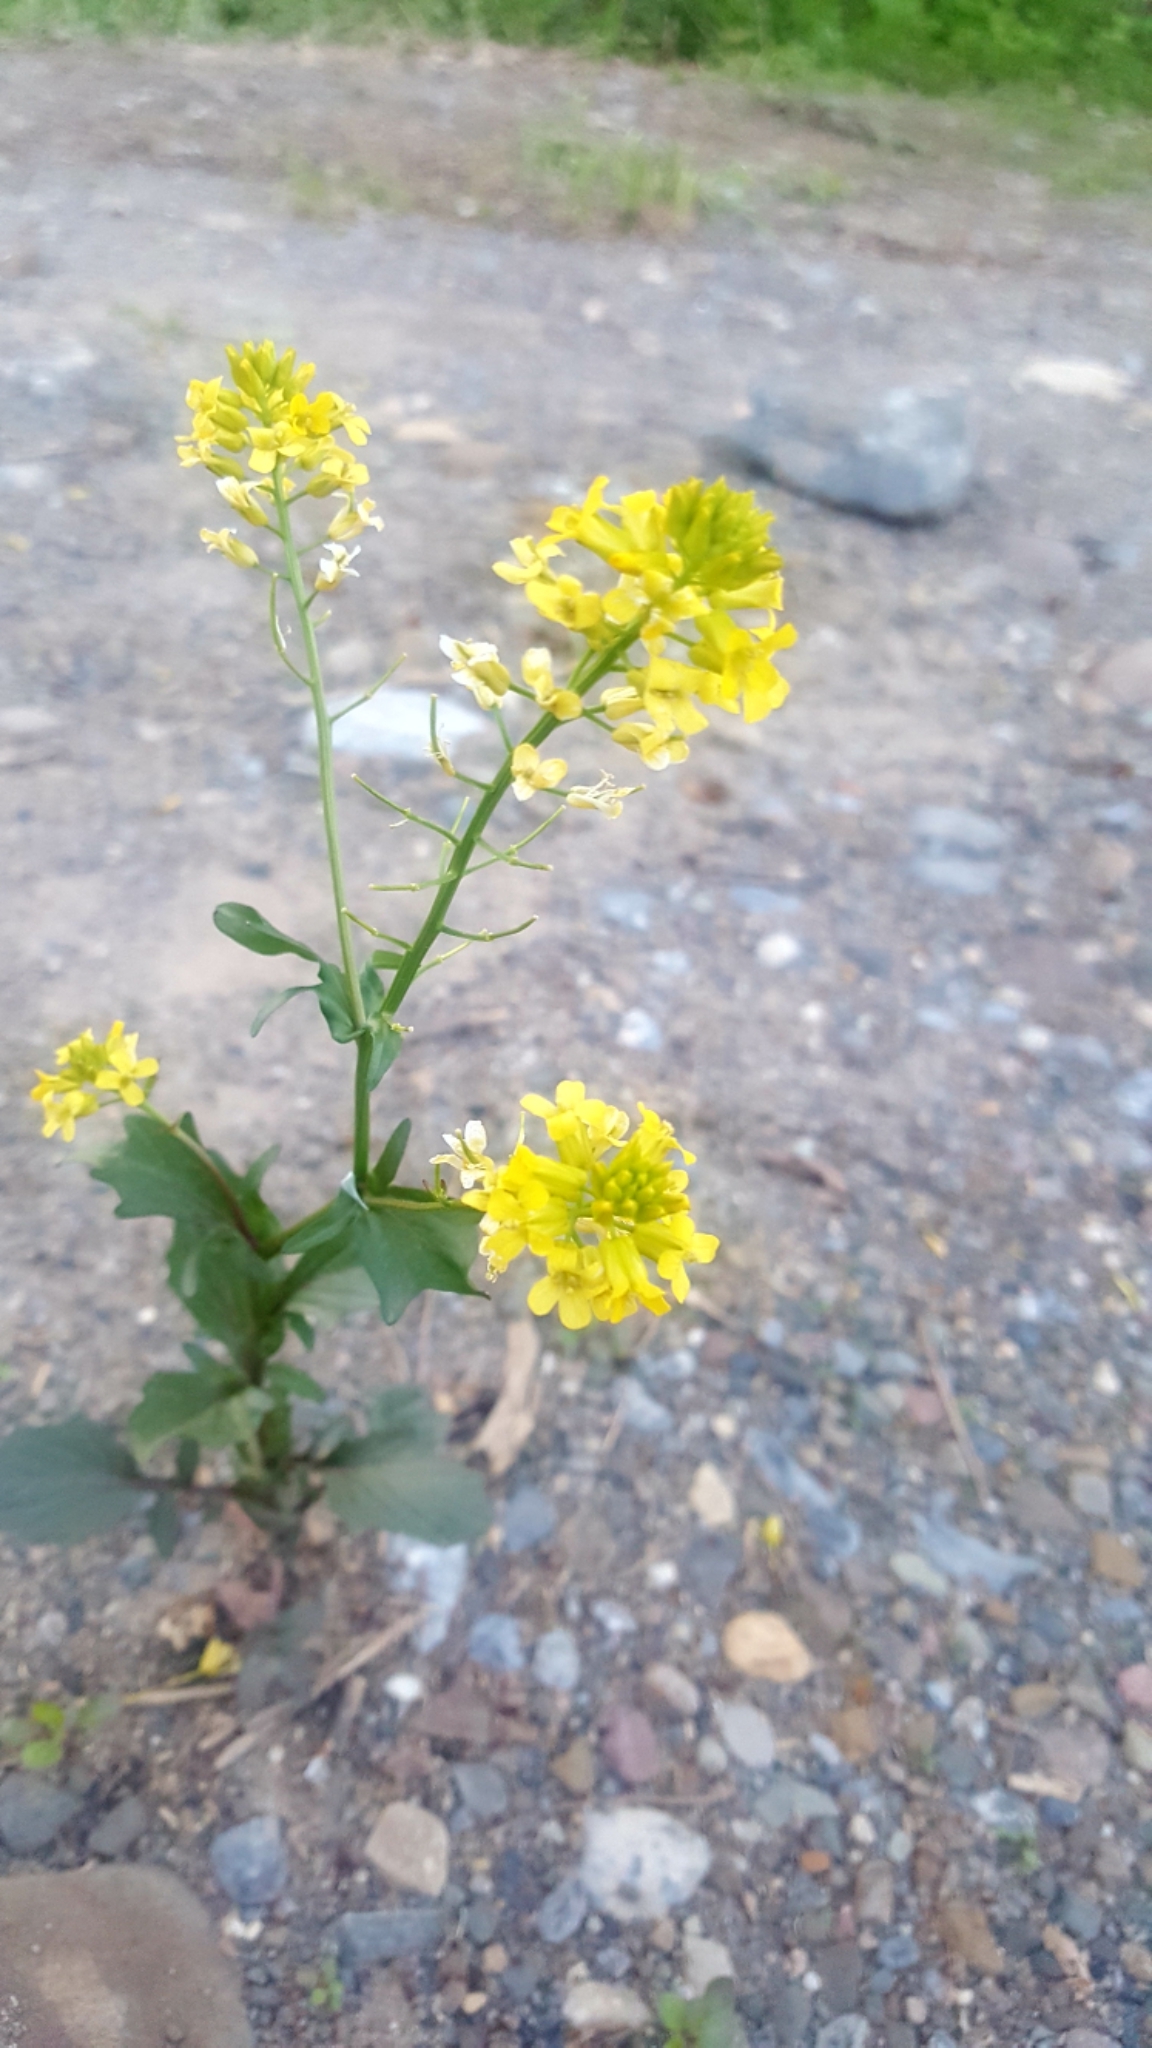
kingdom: Plantae
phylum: Tracheophyta
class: Magnoliopsida
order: Brassicales
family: Brassicaceae
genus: Barbarea
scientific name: Barbarea vulgaris
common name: Cressy-greens
